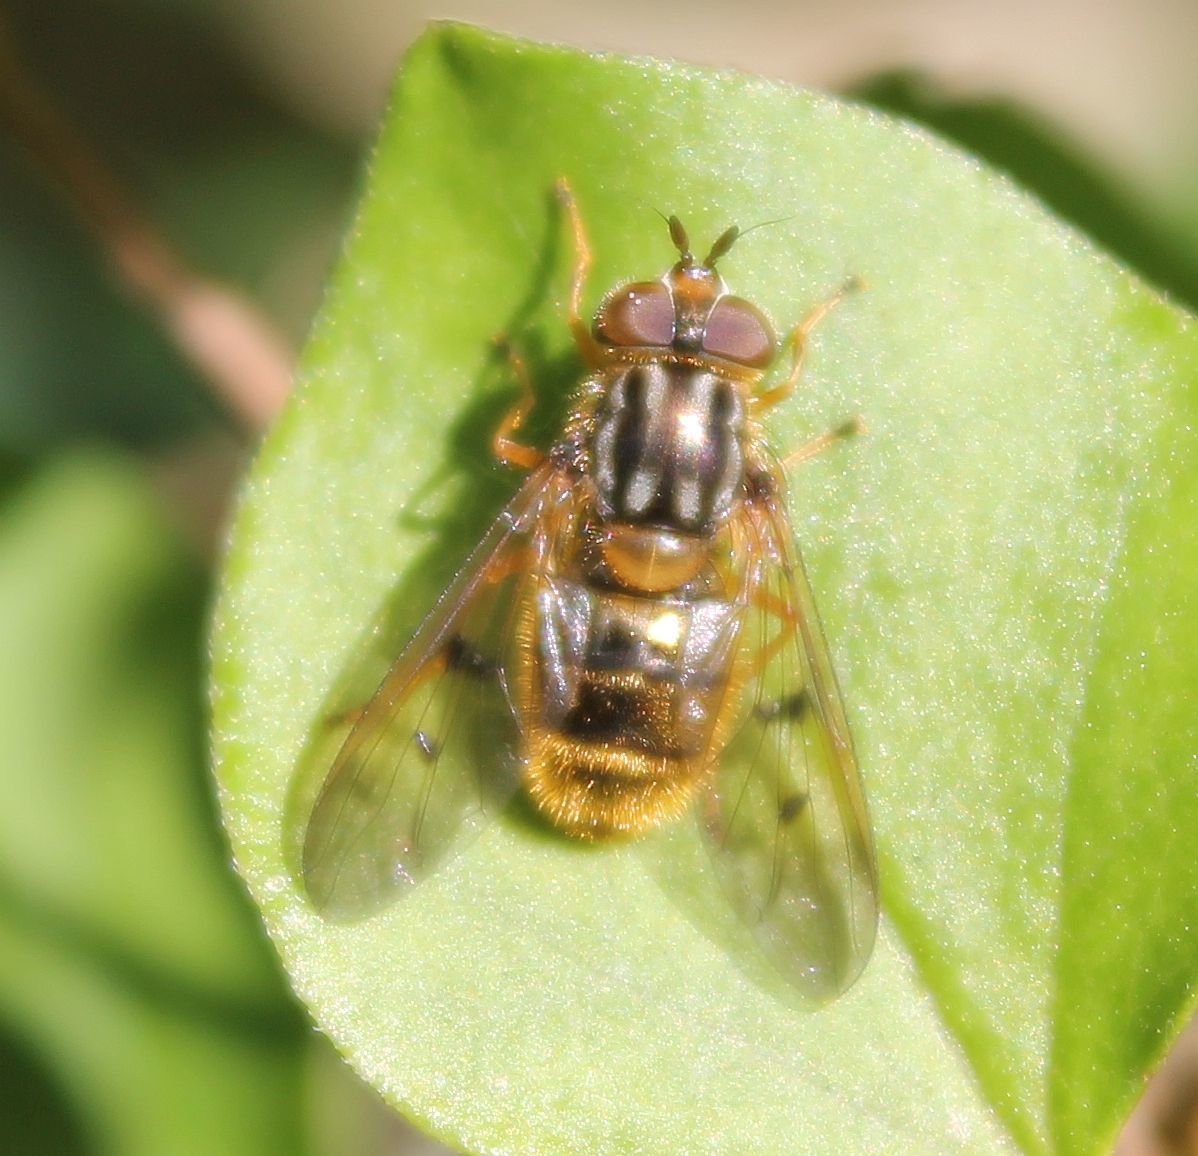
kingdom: Animalia
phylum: Arthropoda
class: Insecta
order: Diptera
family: Syrphidae
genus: Ferdinandea
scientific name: Ferdinandea cuprea
